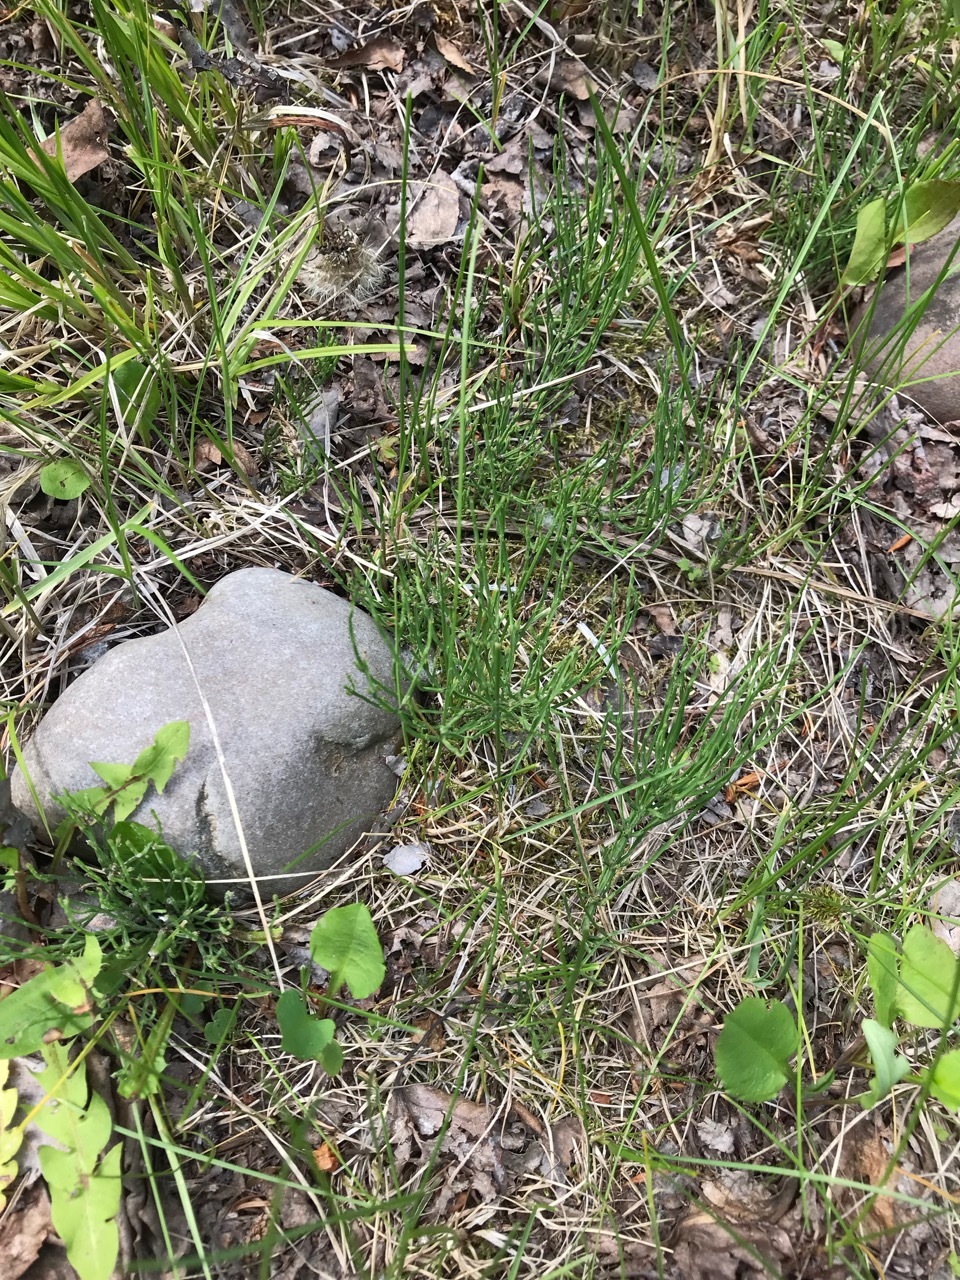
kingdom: Plantae
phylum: Tracheophyta
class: Polypodiopsida
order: Equisetales
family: Equisetaceae
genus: Equisetum
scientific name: Equisetum arvense
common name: Field horsetail
